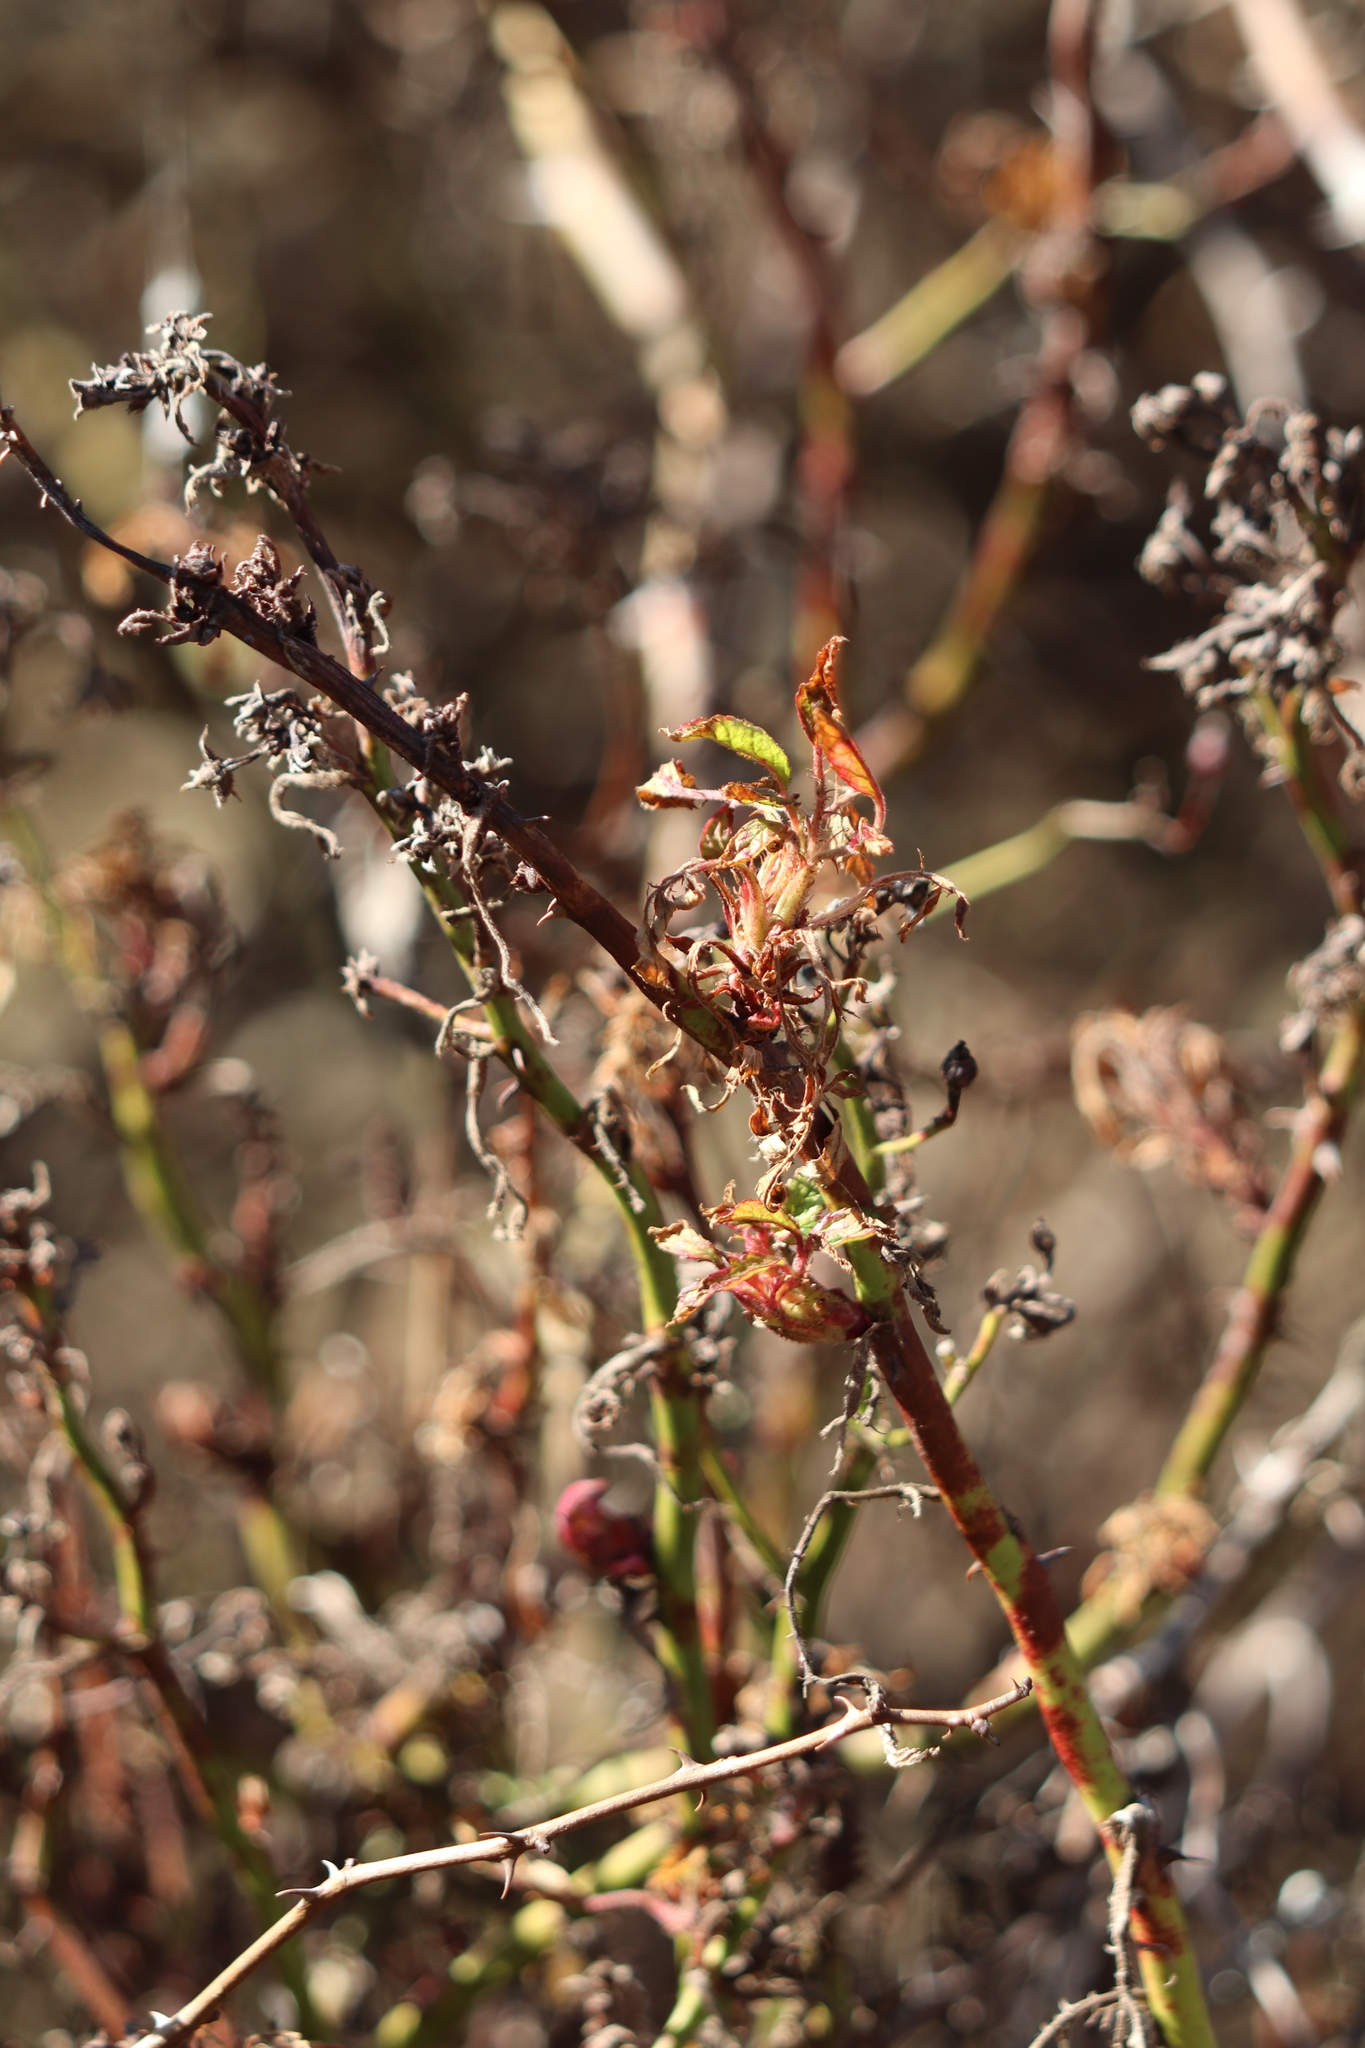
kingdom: Viruses
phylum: Negarnaviricota
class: Ellioviricetes
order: Bunyavirales
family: Fimoviridae
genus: Emaravirus
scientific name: Emaravirus rosae
